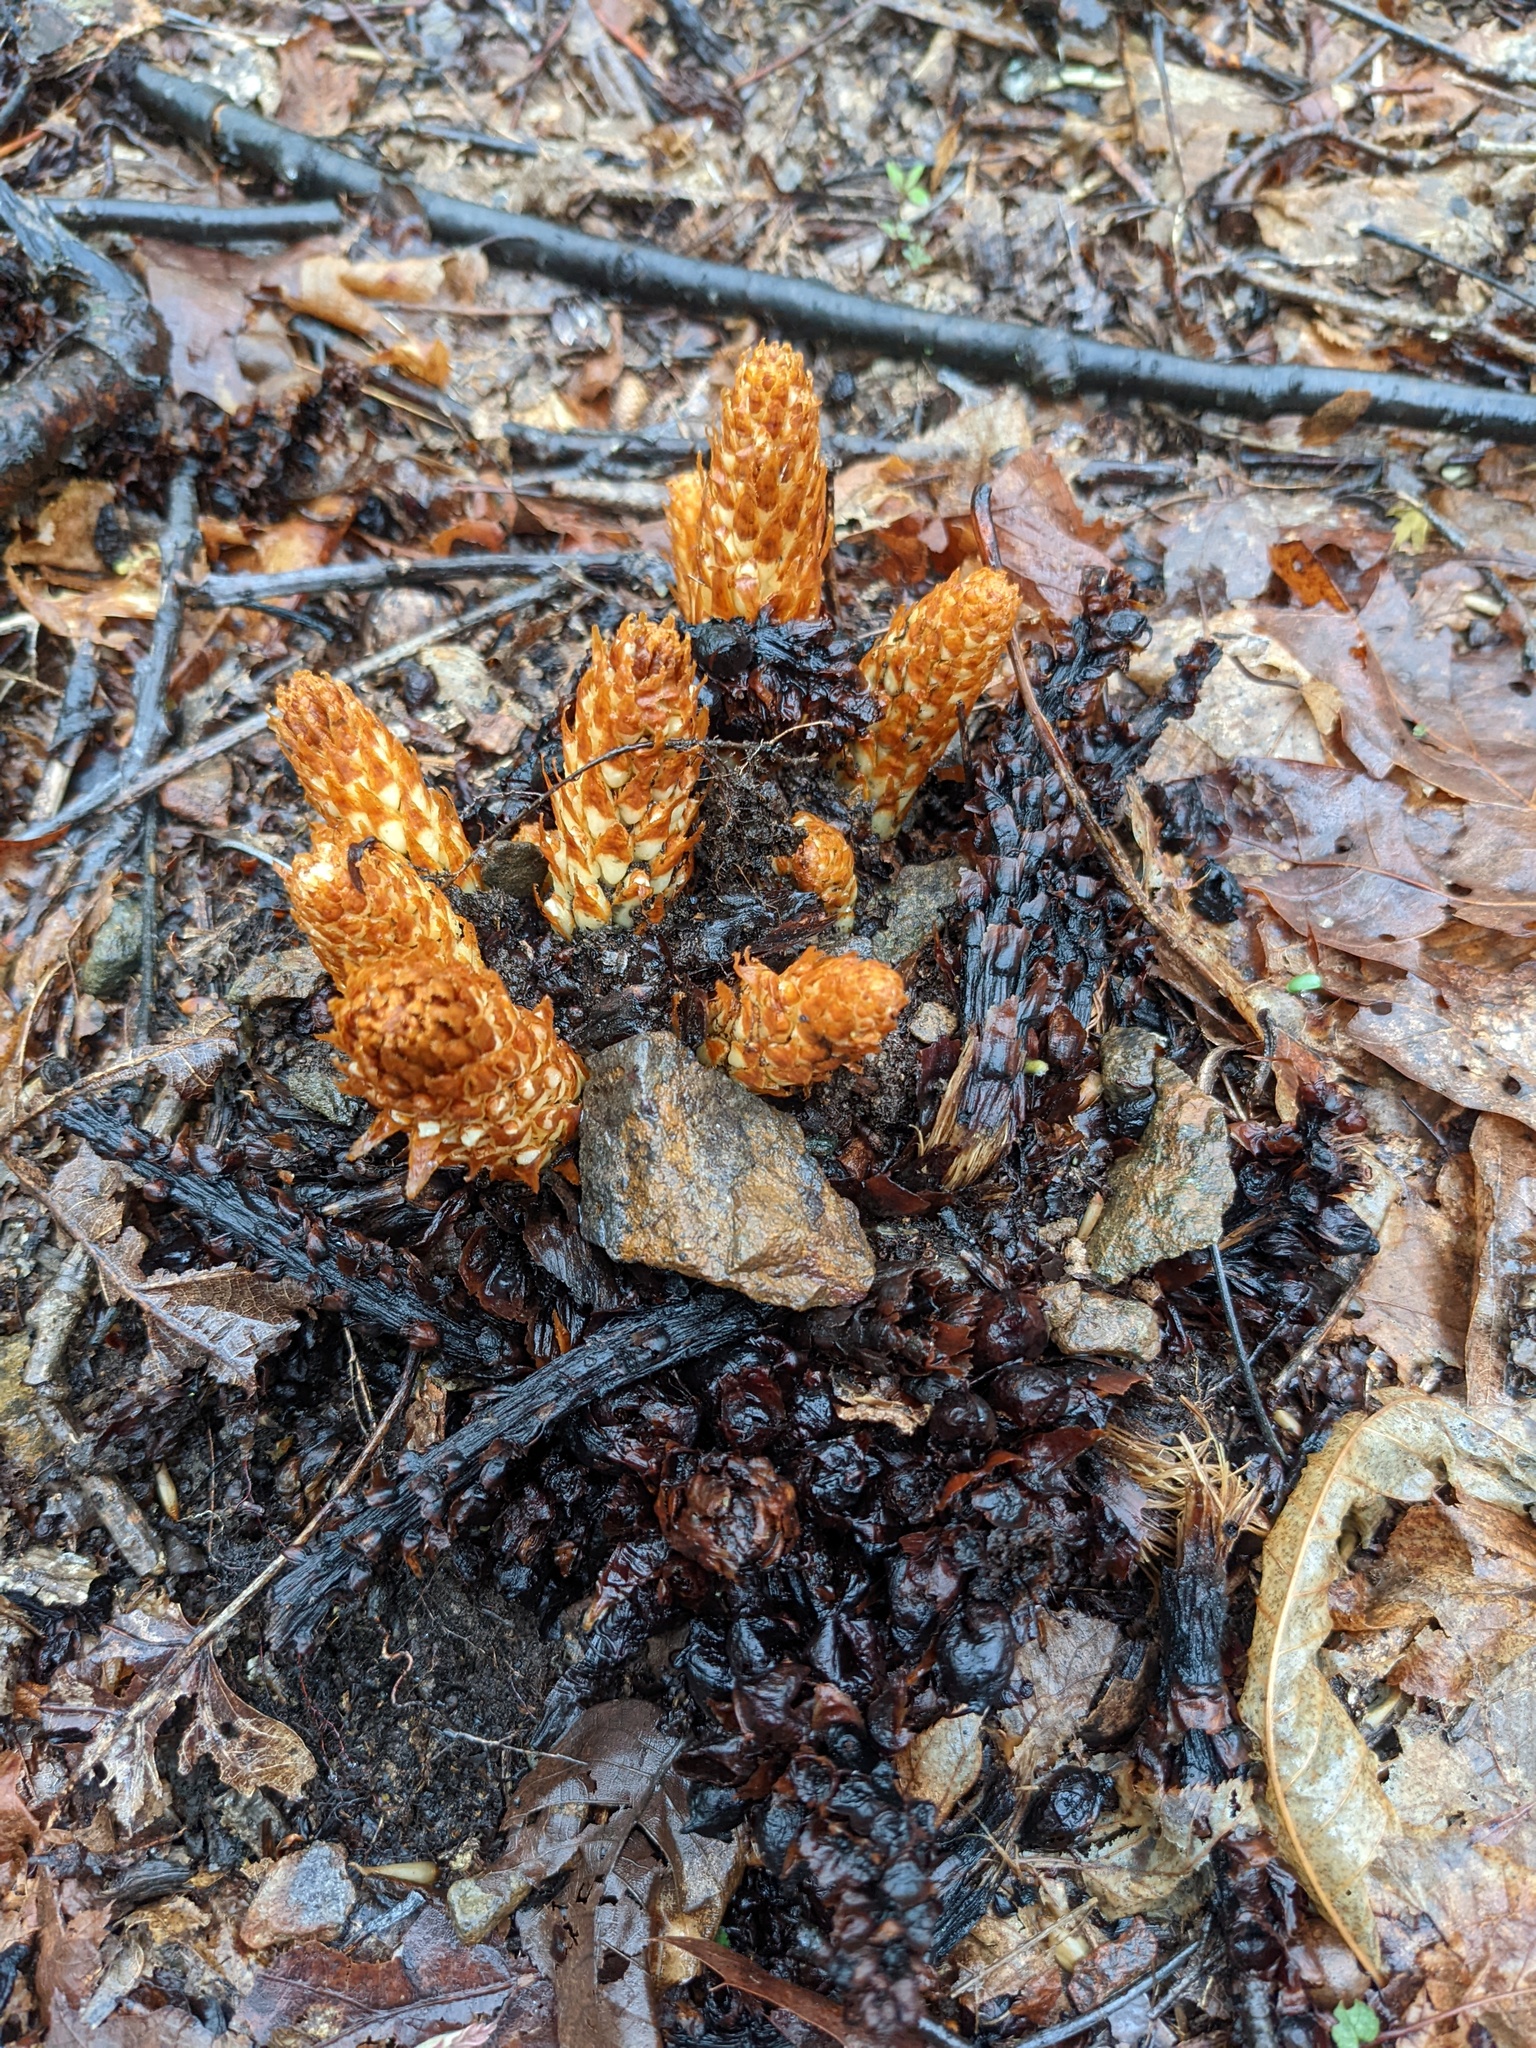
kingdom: Plantae
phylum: Tracheophyta
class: Magnoliopsida
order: Lamiales
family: Orobanchaceae
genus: Conopholis
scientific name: Conopholis americana
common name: American cancer-root
